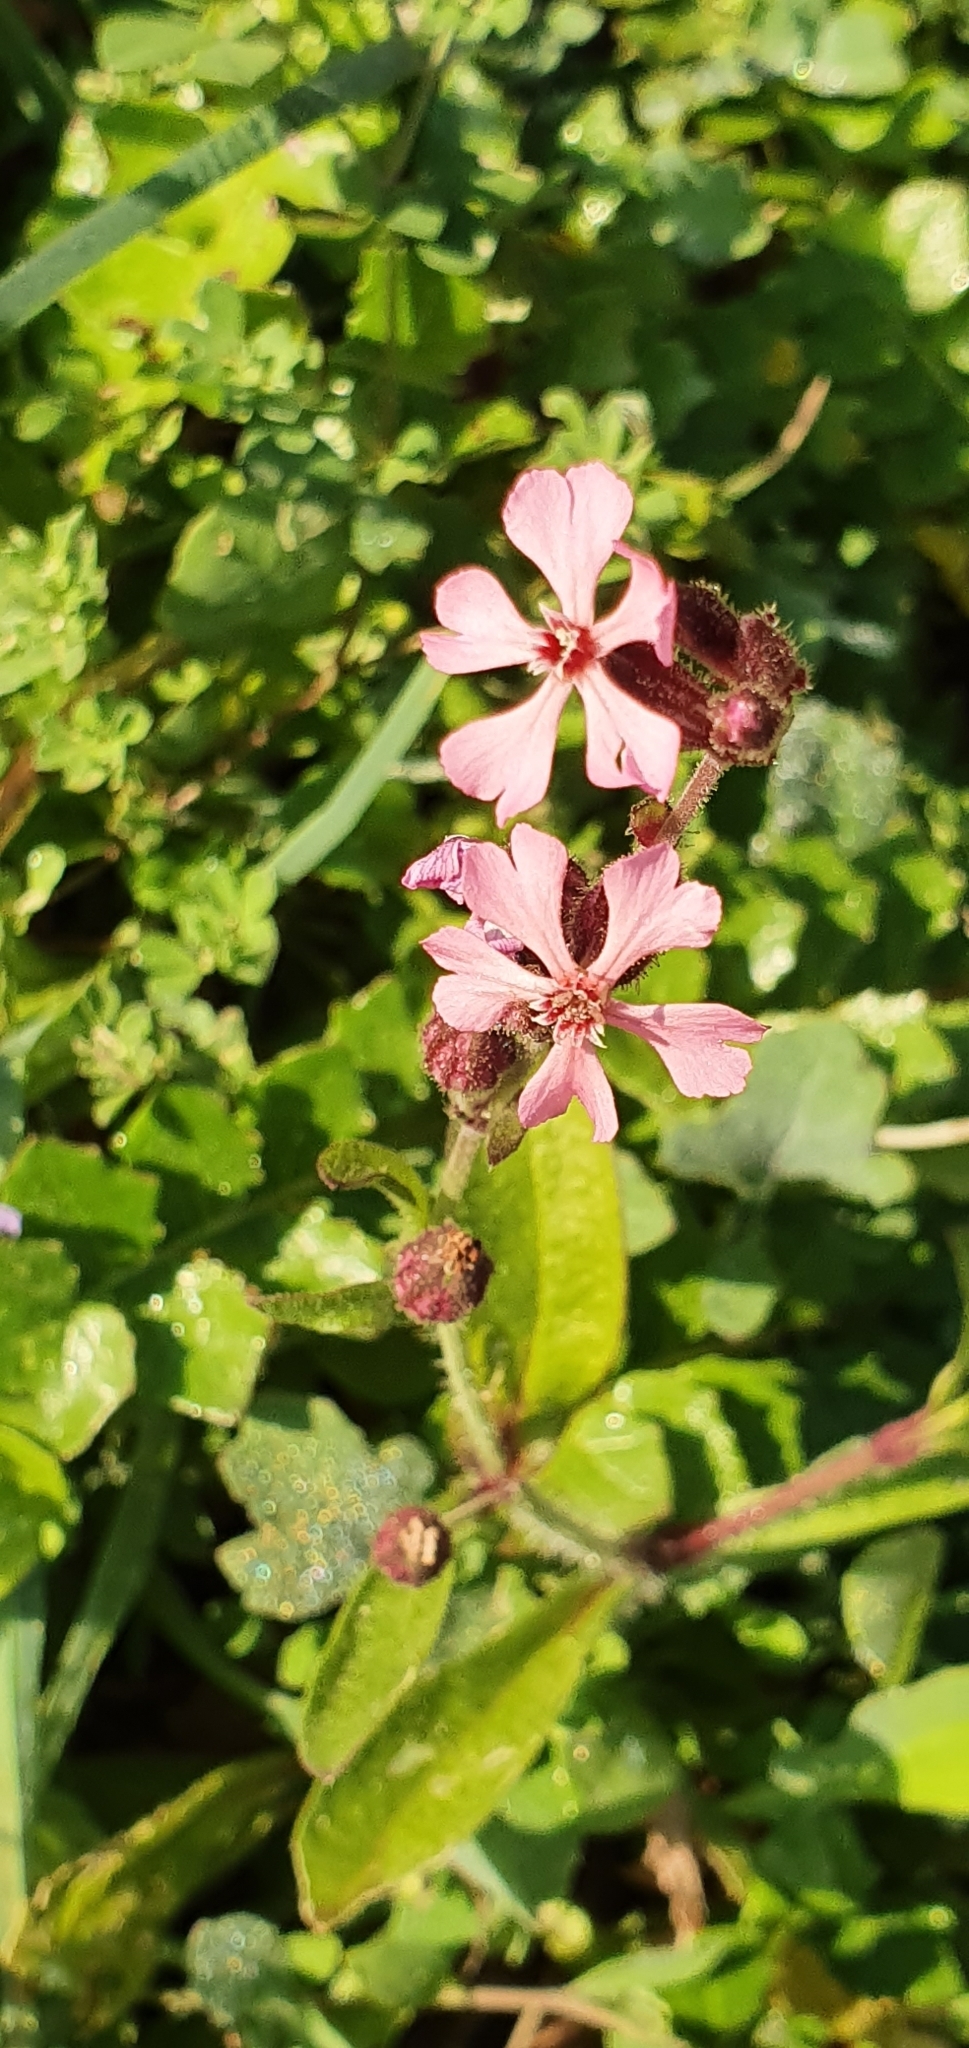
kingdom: Plantae
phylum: Tracheophyta
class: Magnoliopsida
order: Caryophyllales
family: Caryophyllaceae
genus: Silene
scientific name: Silene neglecta
